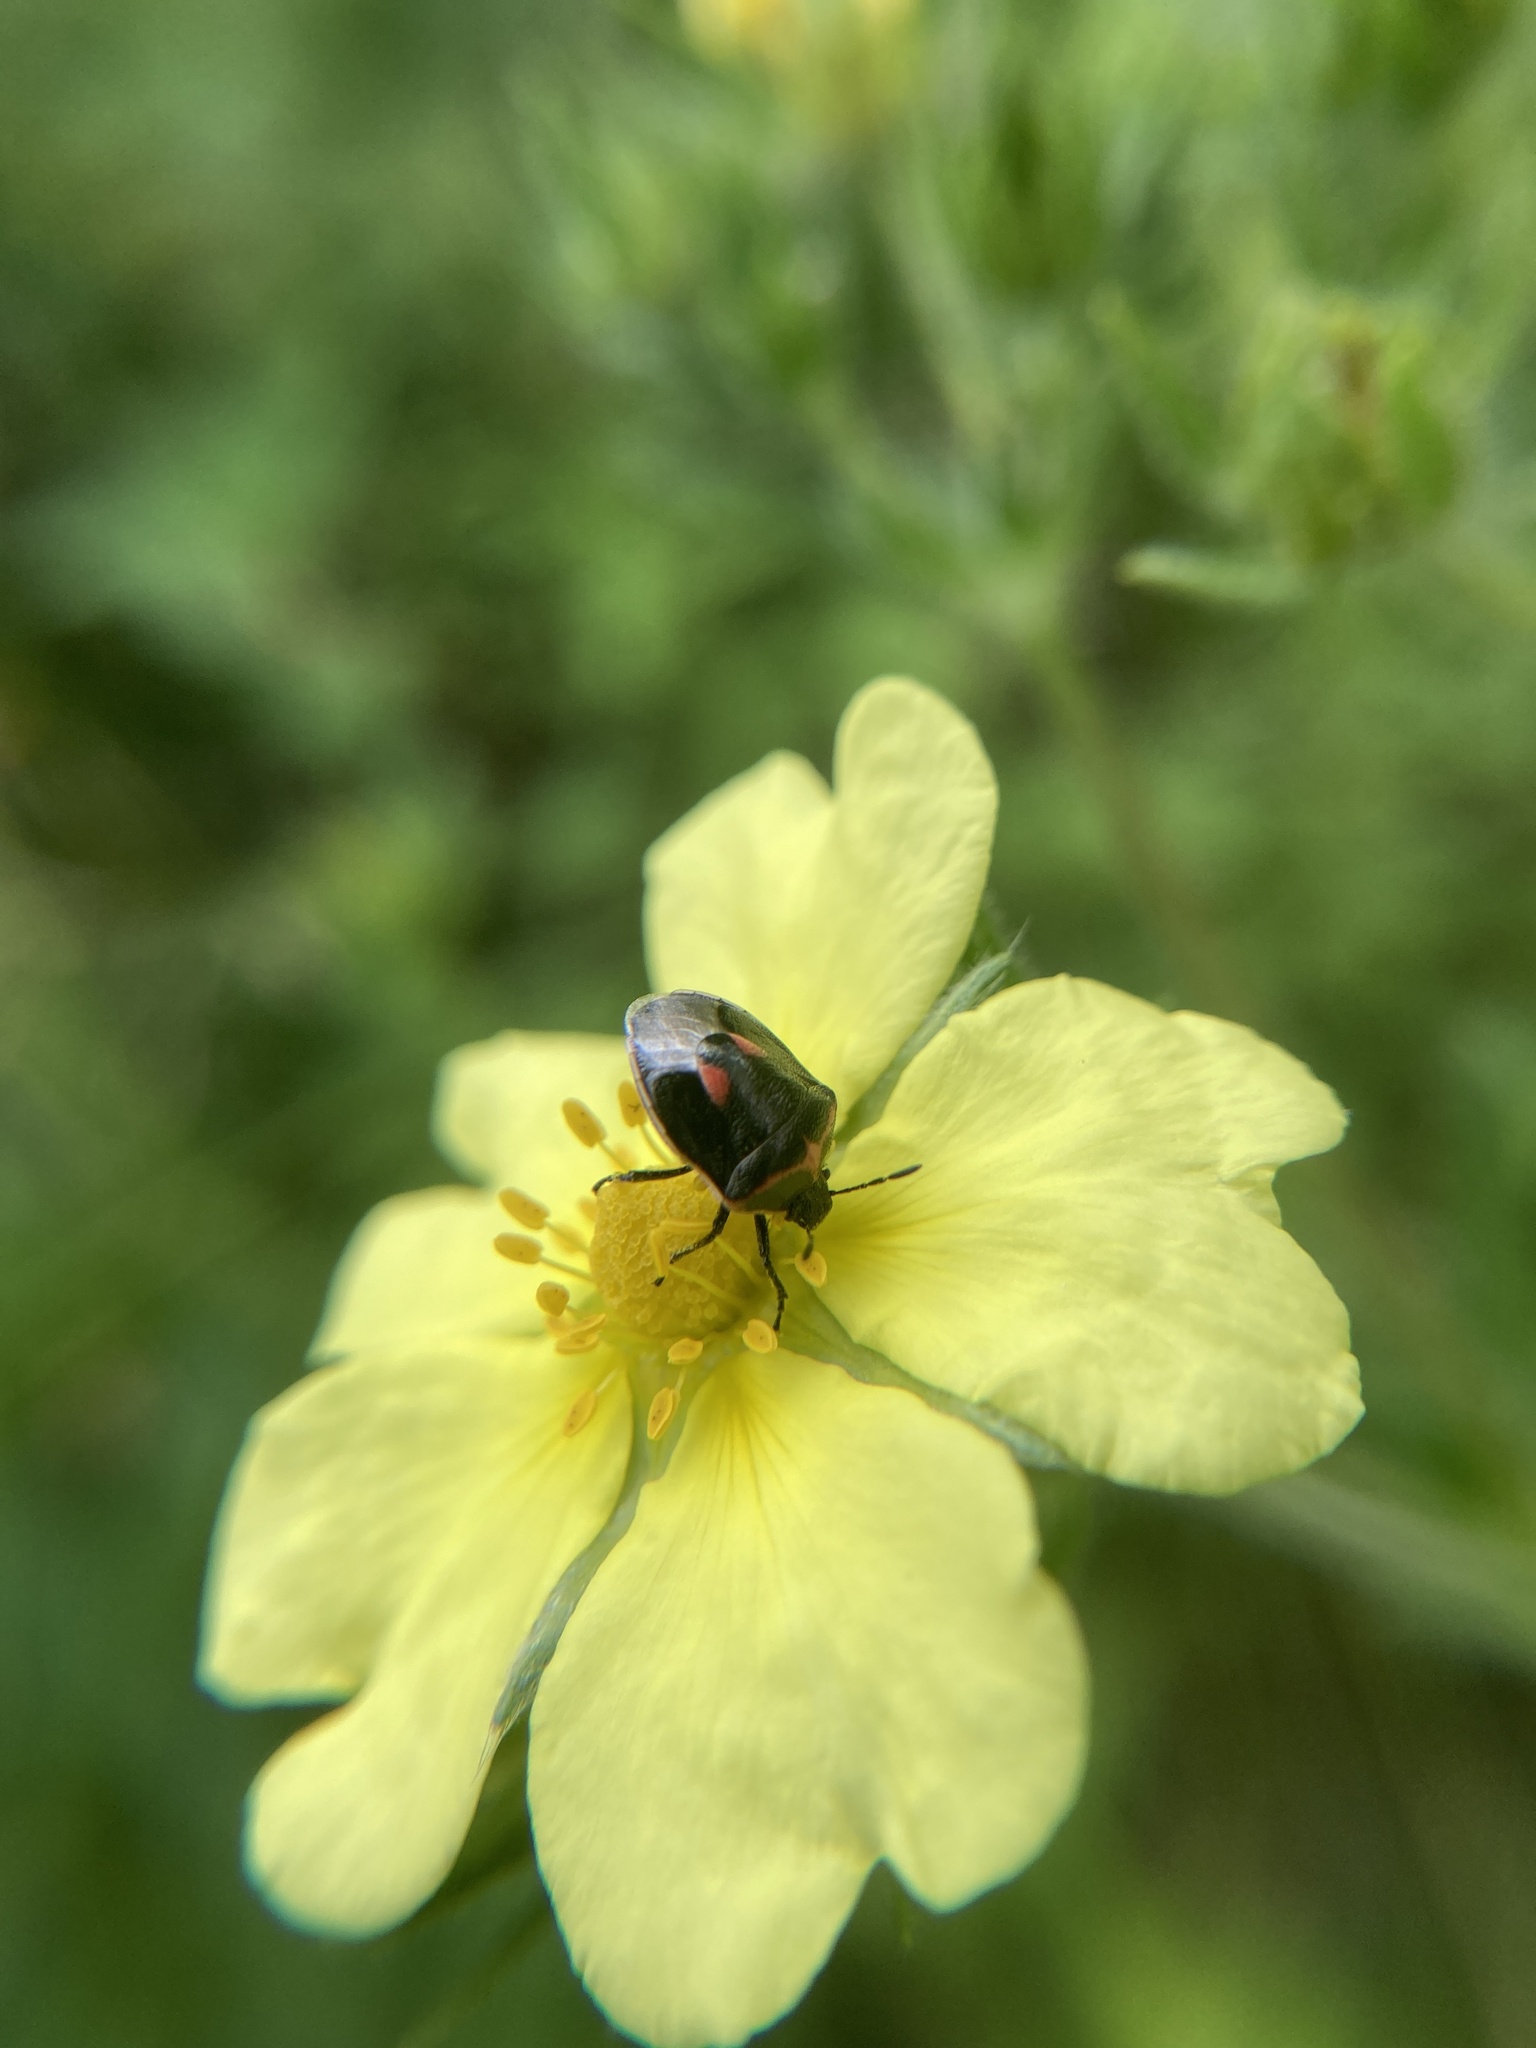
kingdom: Animalia
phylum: Arthropoda
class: Insecta
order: Hemiptera
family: Pentatomidae
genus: Cosmopepla
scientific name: Cosmopepla lintneriana
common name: Twice-stabbed stink bug
